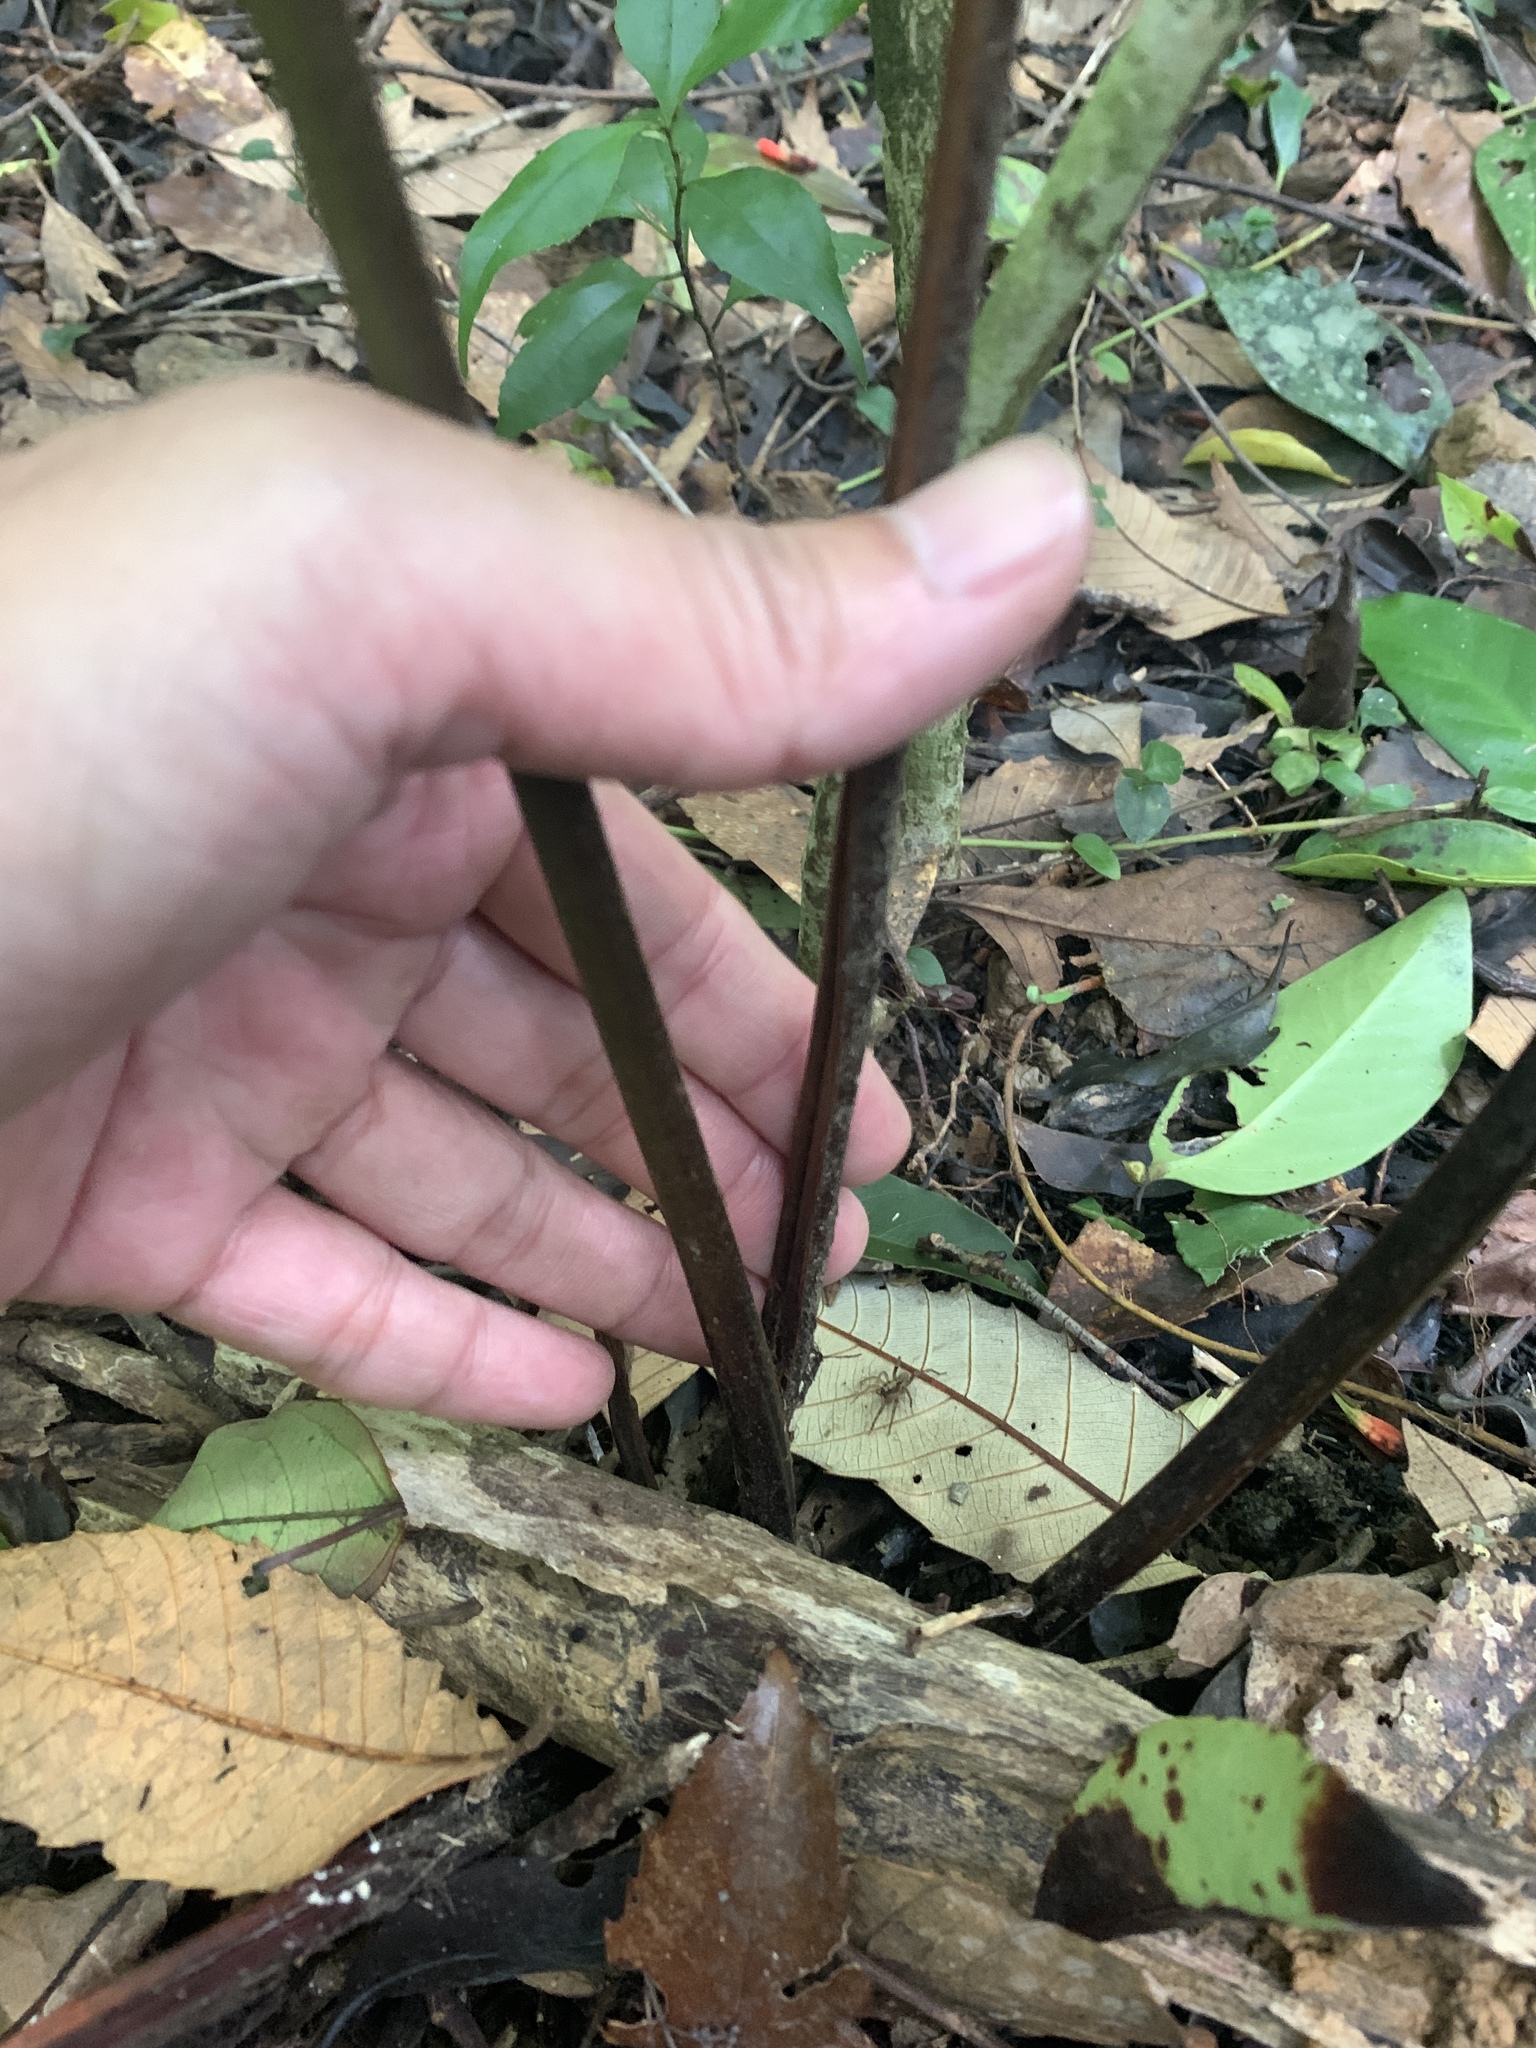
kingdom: Plantae
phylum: Tracheophyta
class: Polypodiopsida
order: Polypodiales
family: Dryopteridaceae
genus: Pleocnemia
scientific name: Pleocnemia submembranacea
